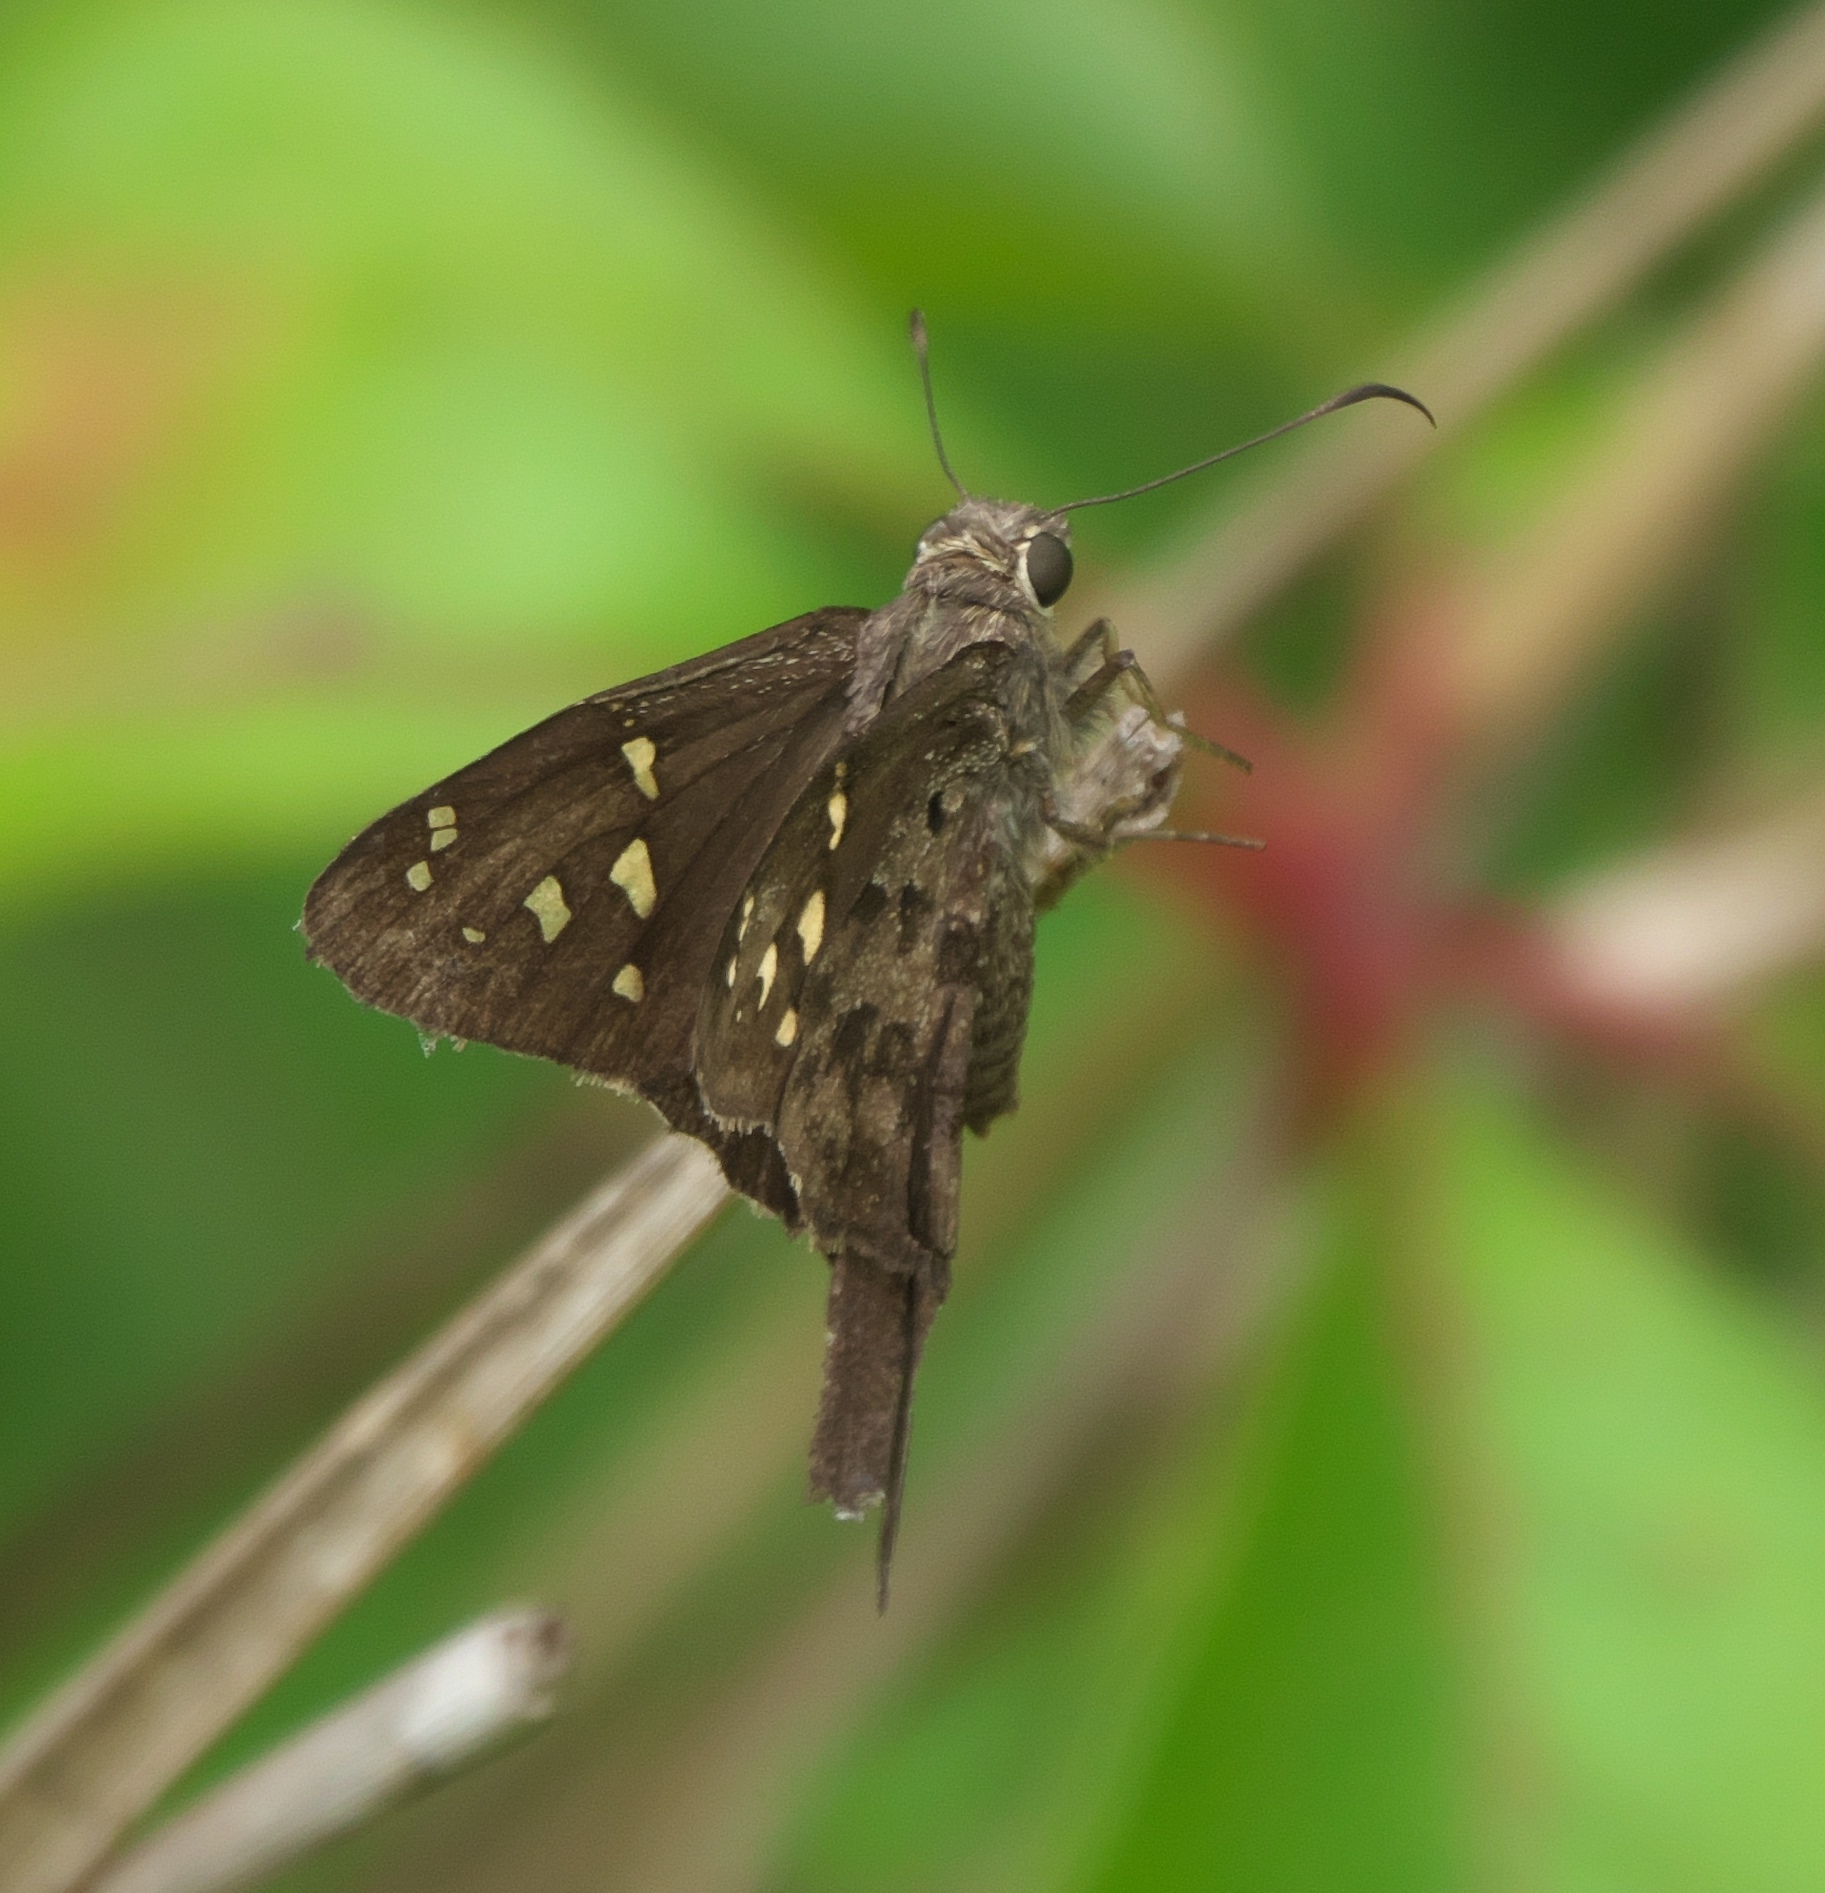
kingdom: Animalia
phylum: Arthropoda
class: Insecta
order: Lepidoptera
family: Hesperiidae
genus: Thorybes
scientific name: Thorybes
